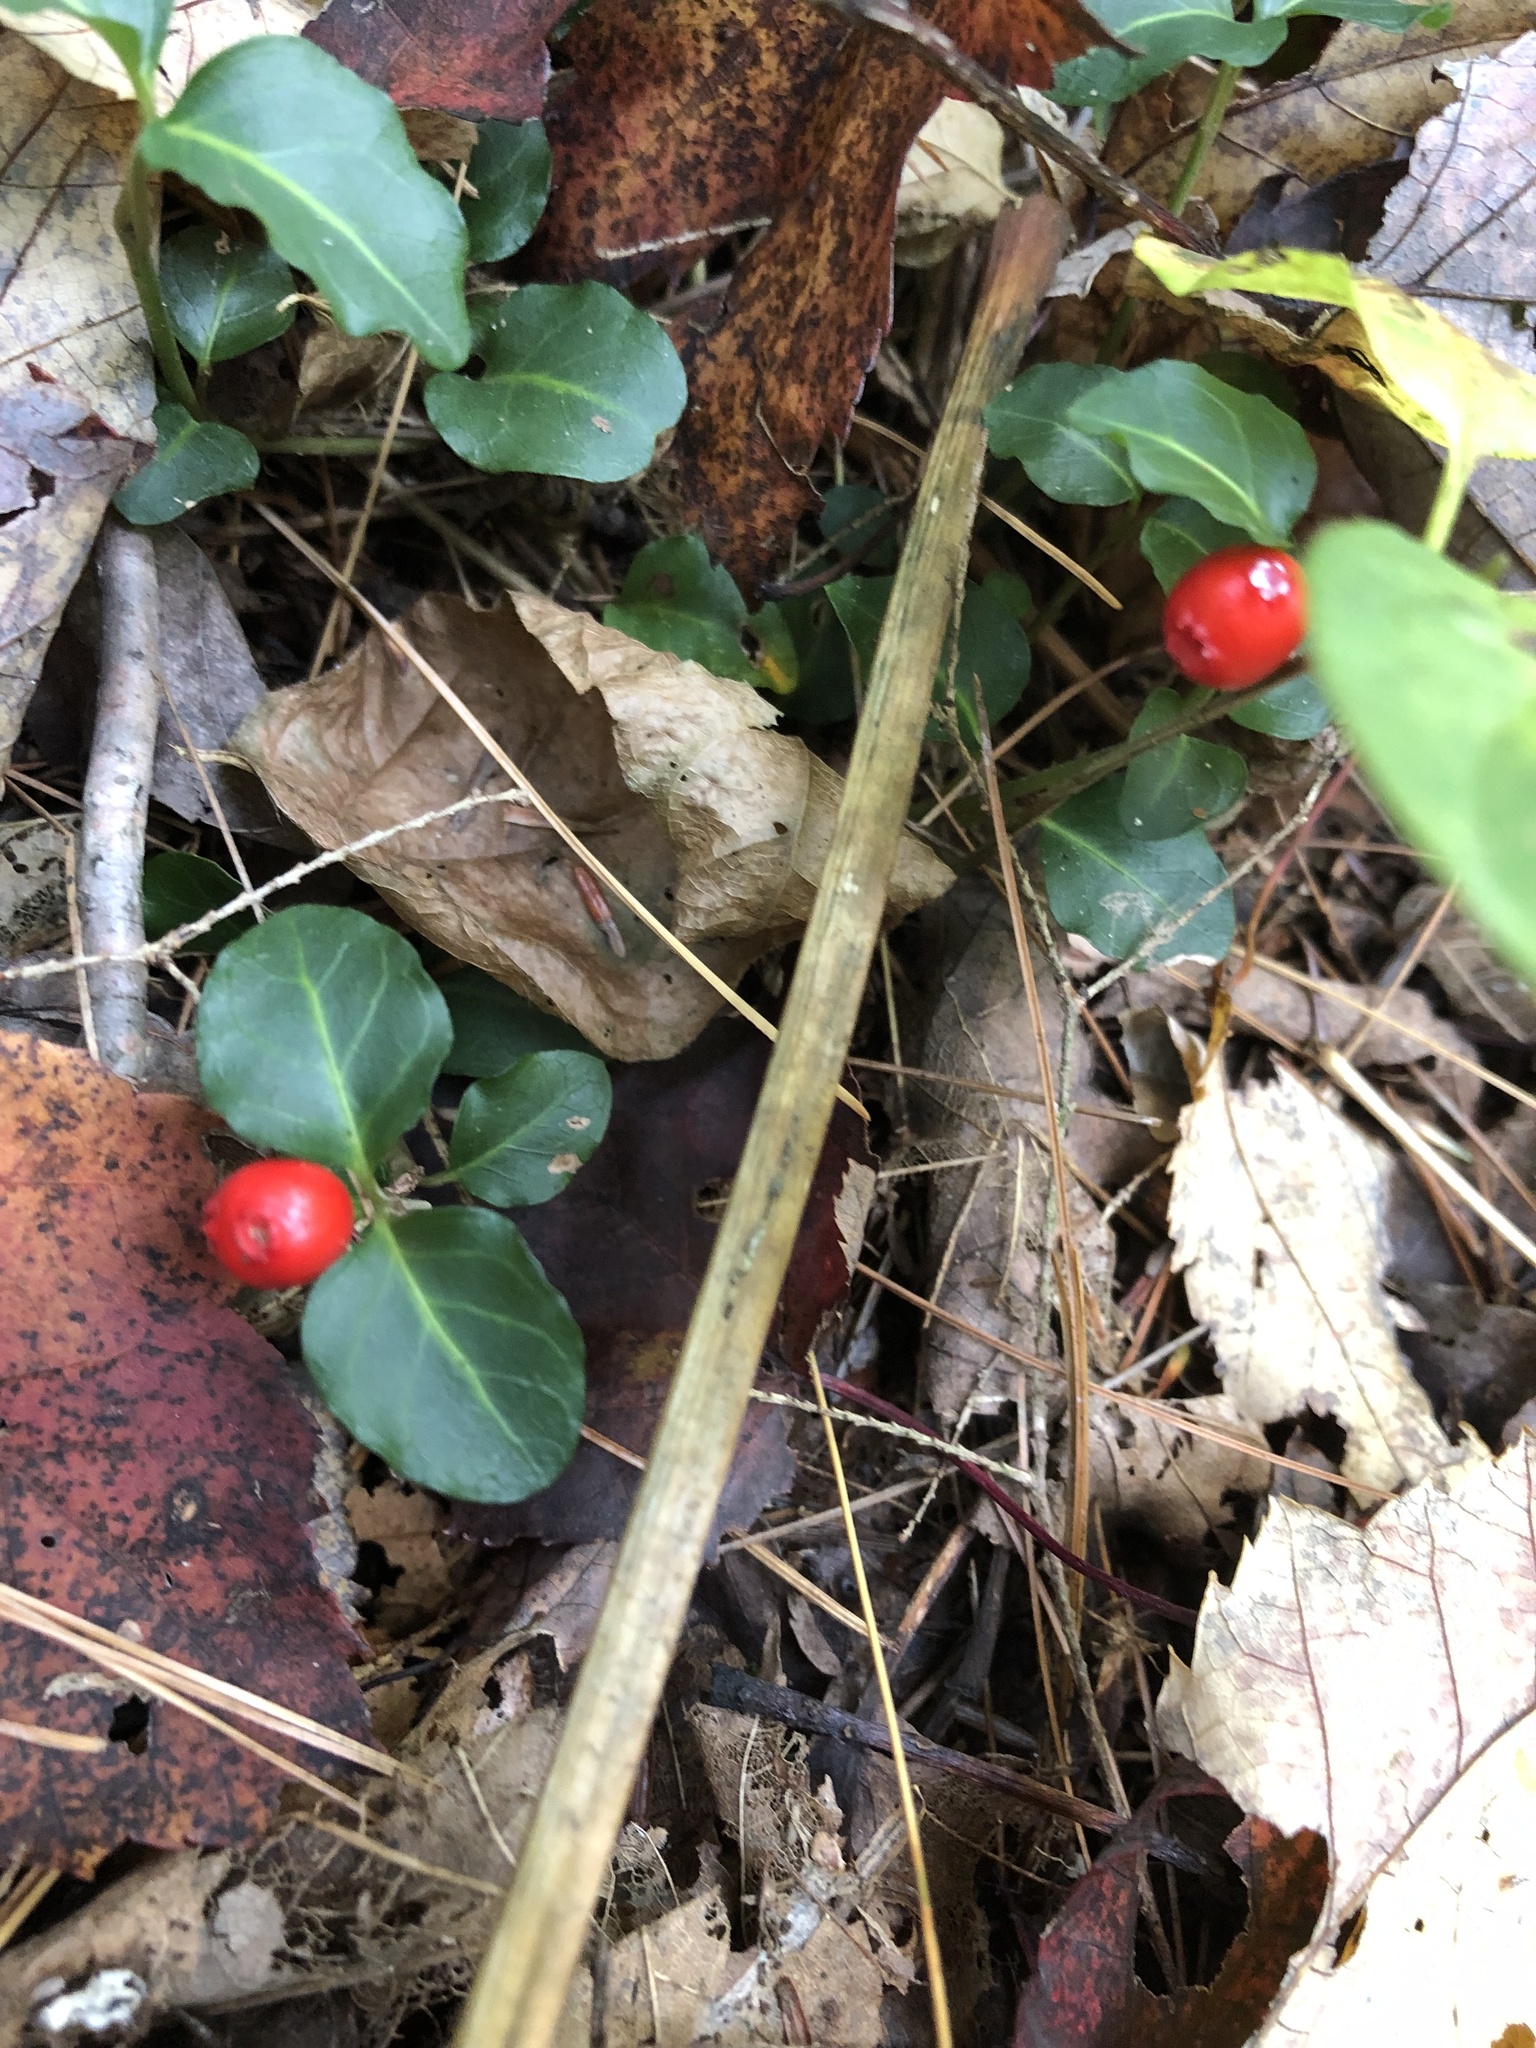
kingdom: Plantae
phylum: Tracheophyta
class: Magnoliopsida
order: Gentianales
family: Rubiaceae
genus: Mitchella
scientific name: Mitchella repens
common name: Partridge-berry
